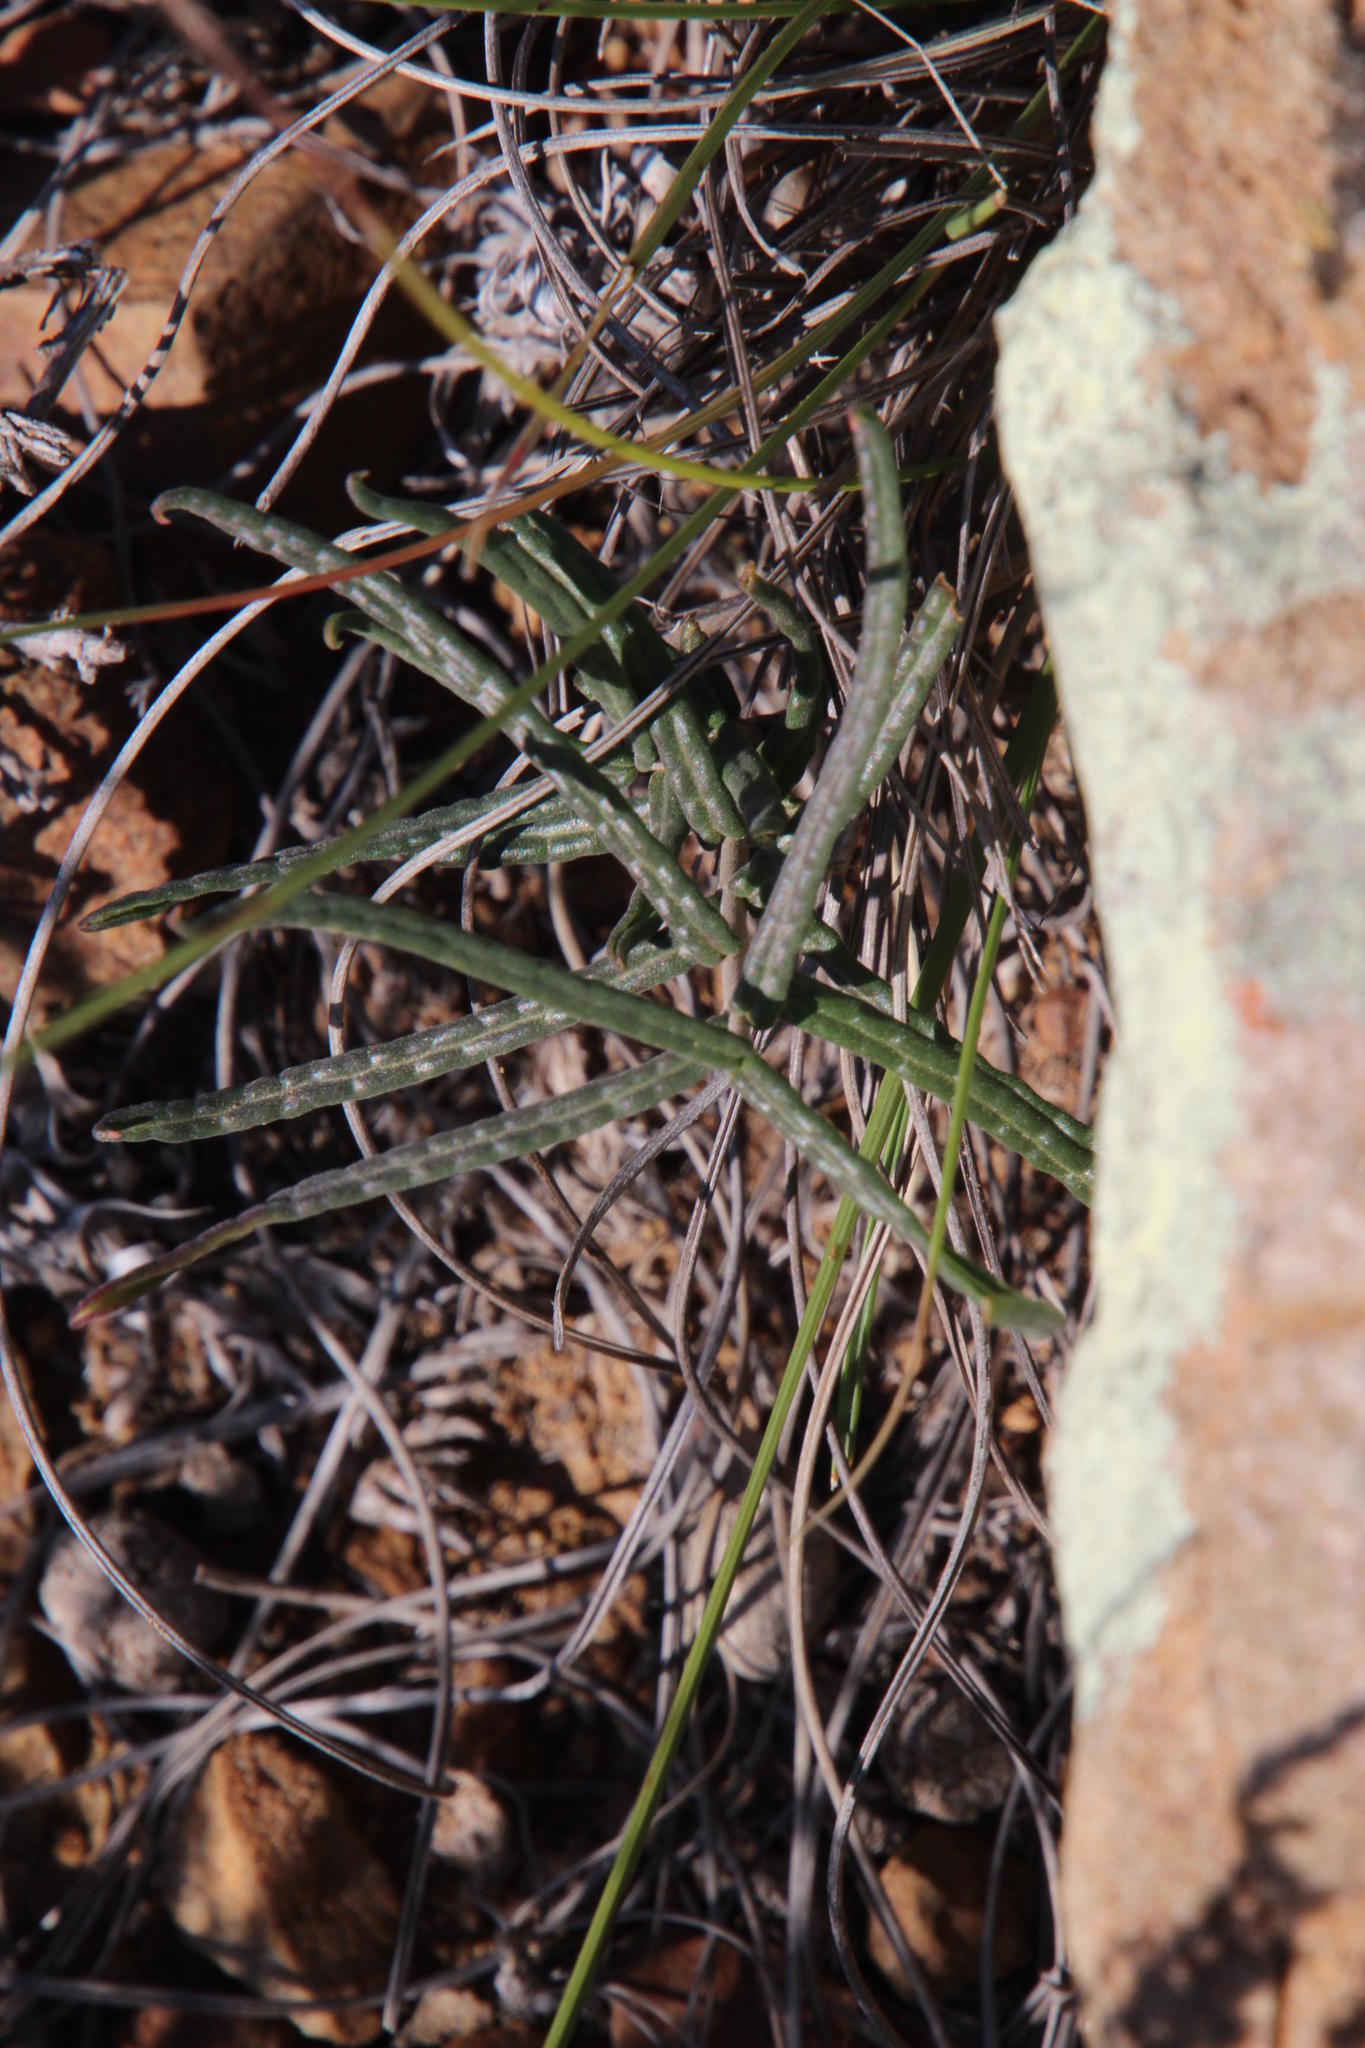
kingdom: Plantae
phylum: Tracheophyta
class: Magnoliopsida
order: Gentianales
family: Apocynaceae
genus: Fockea
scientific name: Fockea comaru
